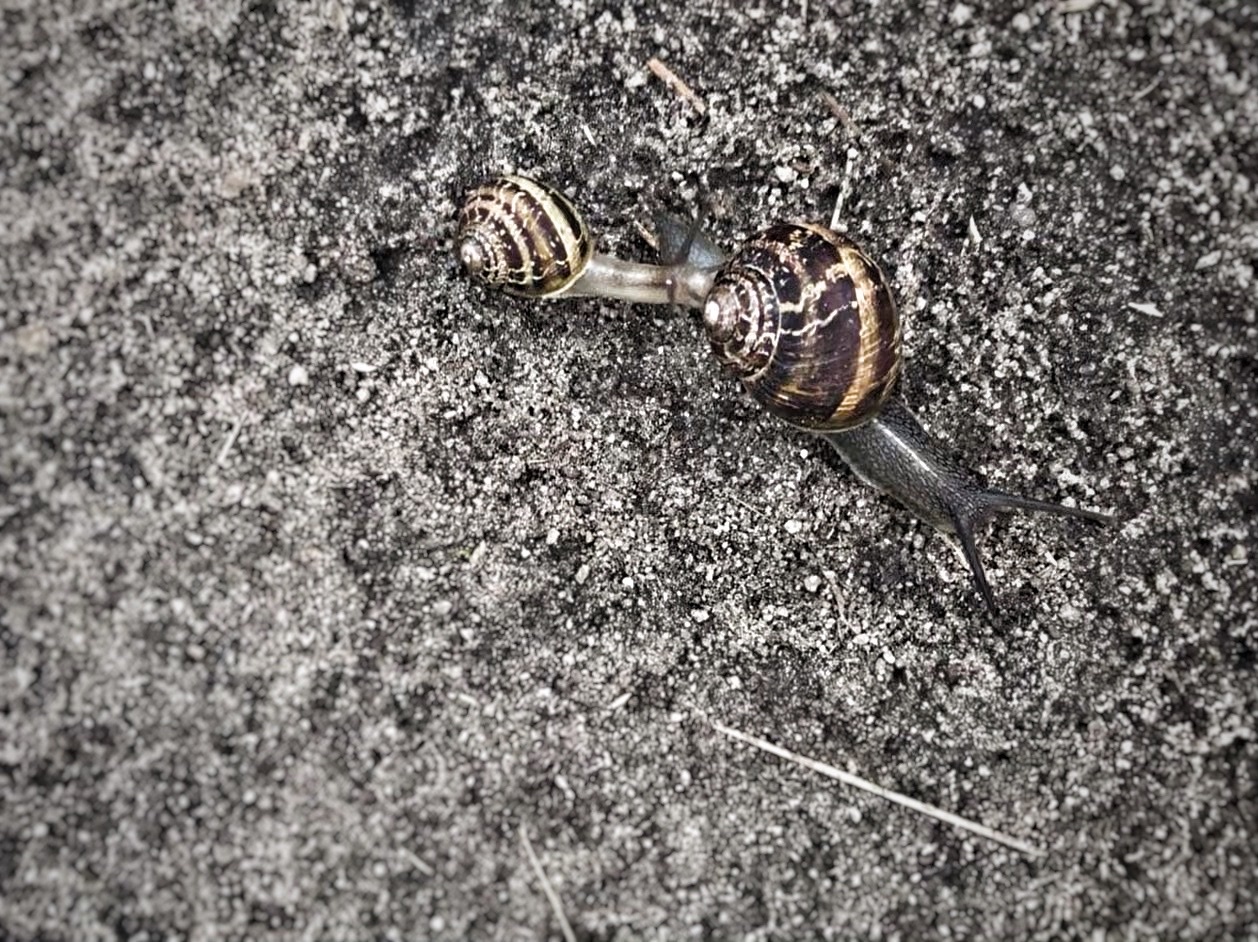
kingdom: Animalia
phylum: Mollusca
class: Gastropoda
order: Stylommatophora
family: Helicidae
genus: Cornu
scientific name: Cornu aspersum
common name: Brown garden snail
